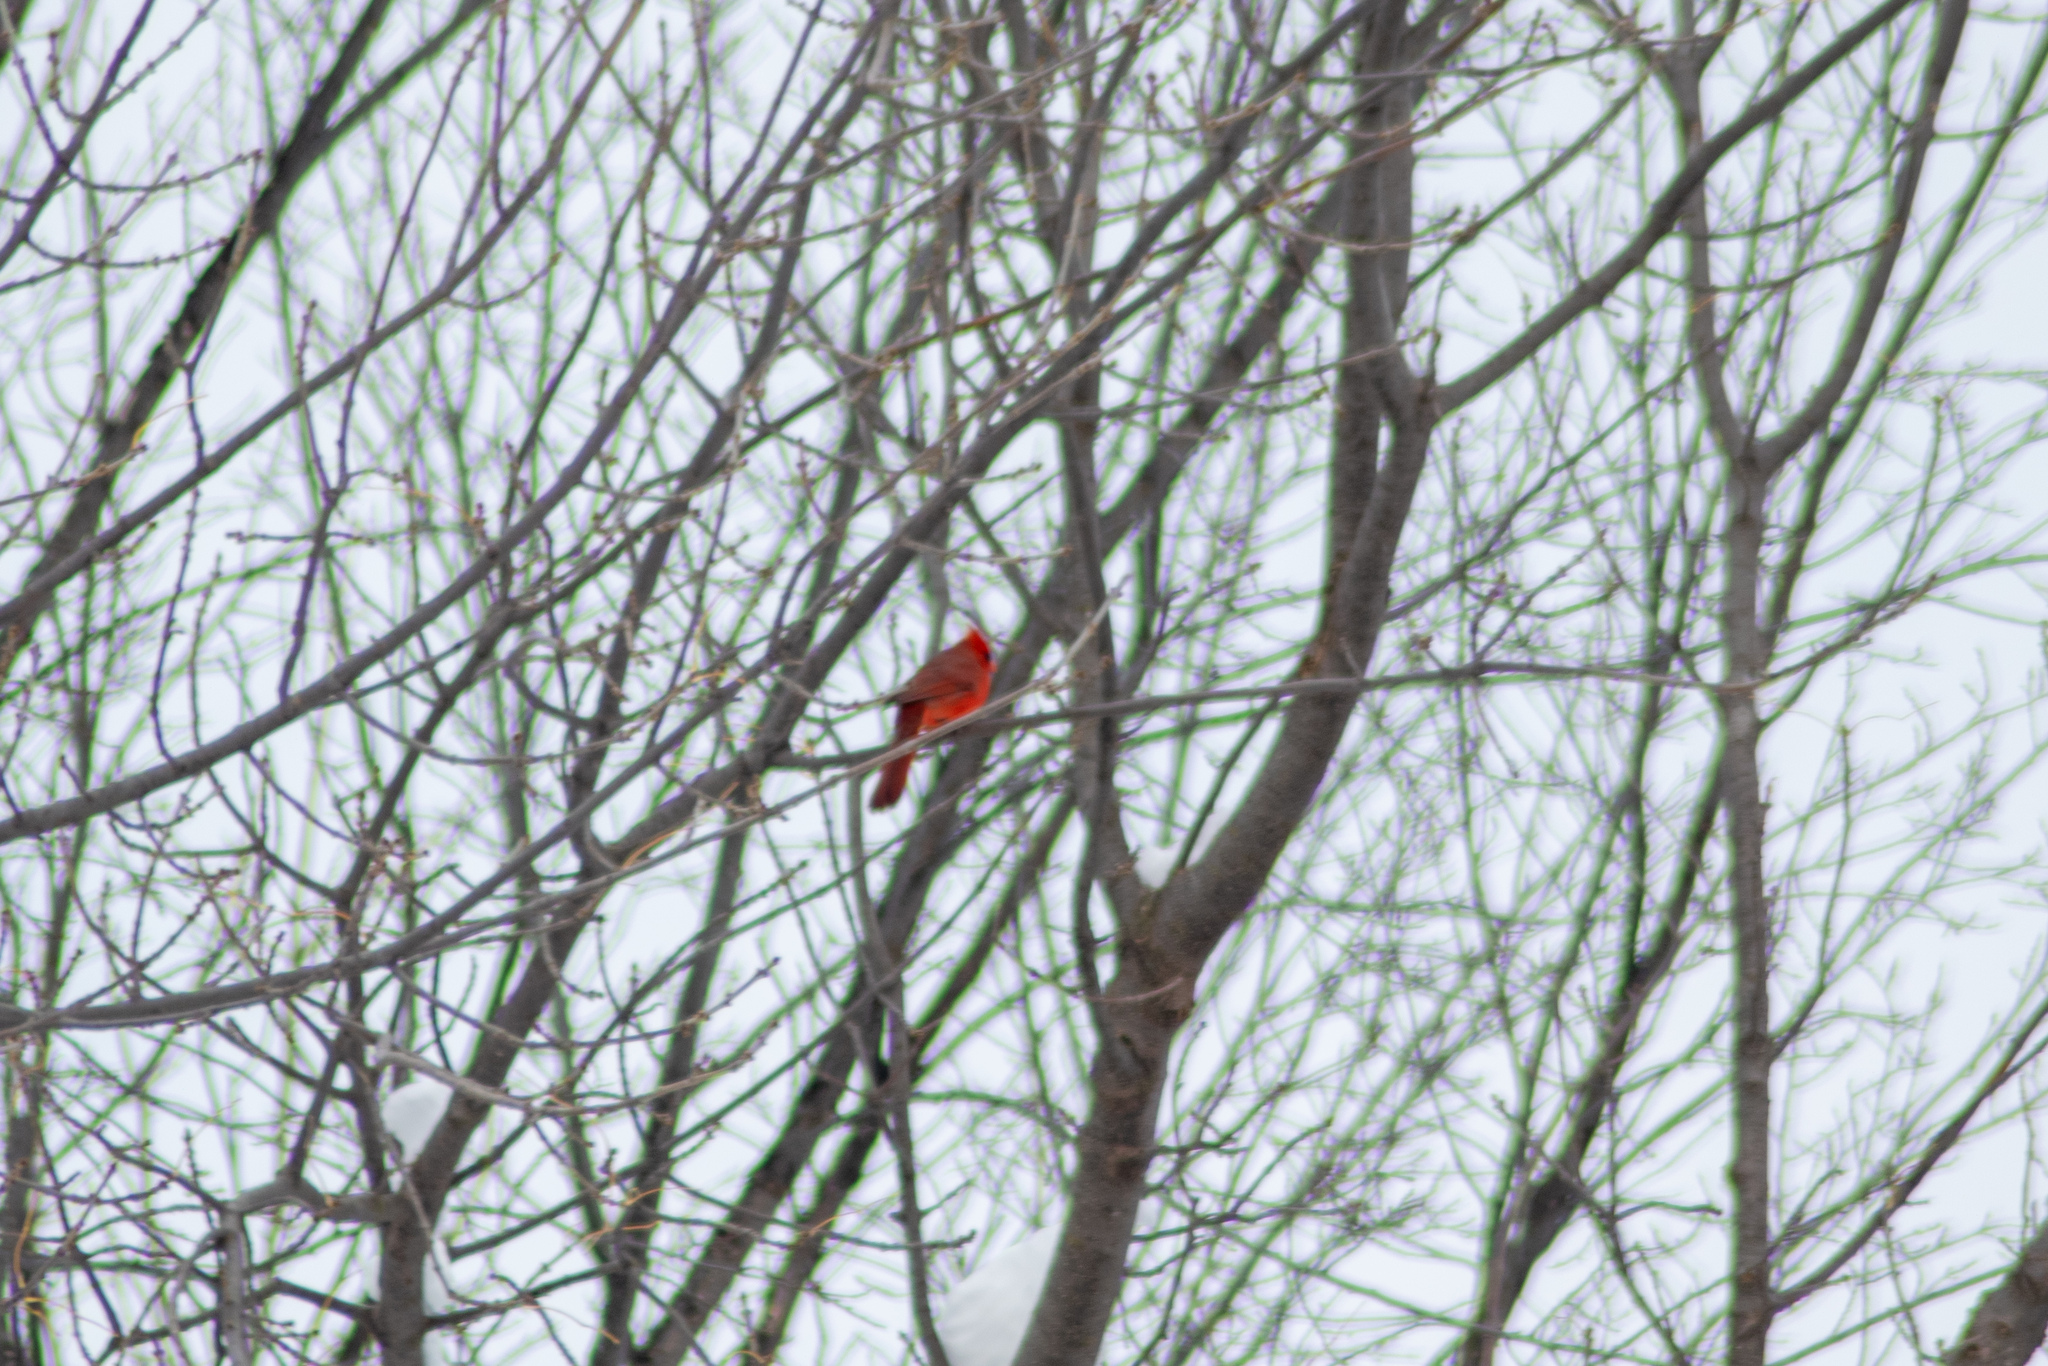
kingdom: Animalia
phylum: Chordata
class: Aves
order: Passeriformes
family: Cardinalidae
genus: Cardinalis
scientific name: Cardinalis cardinalis
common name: Northern cardinal
